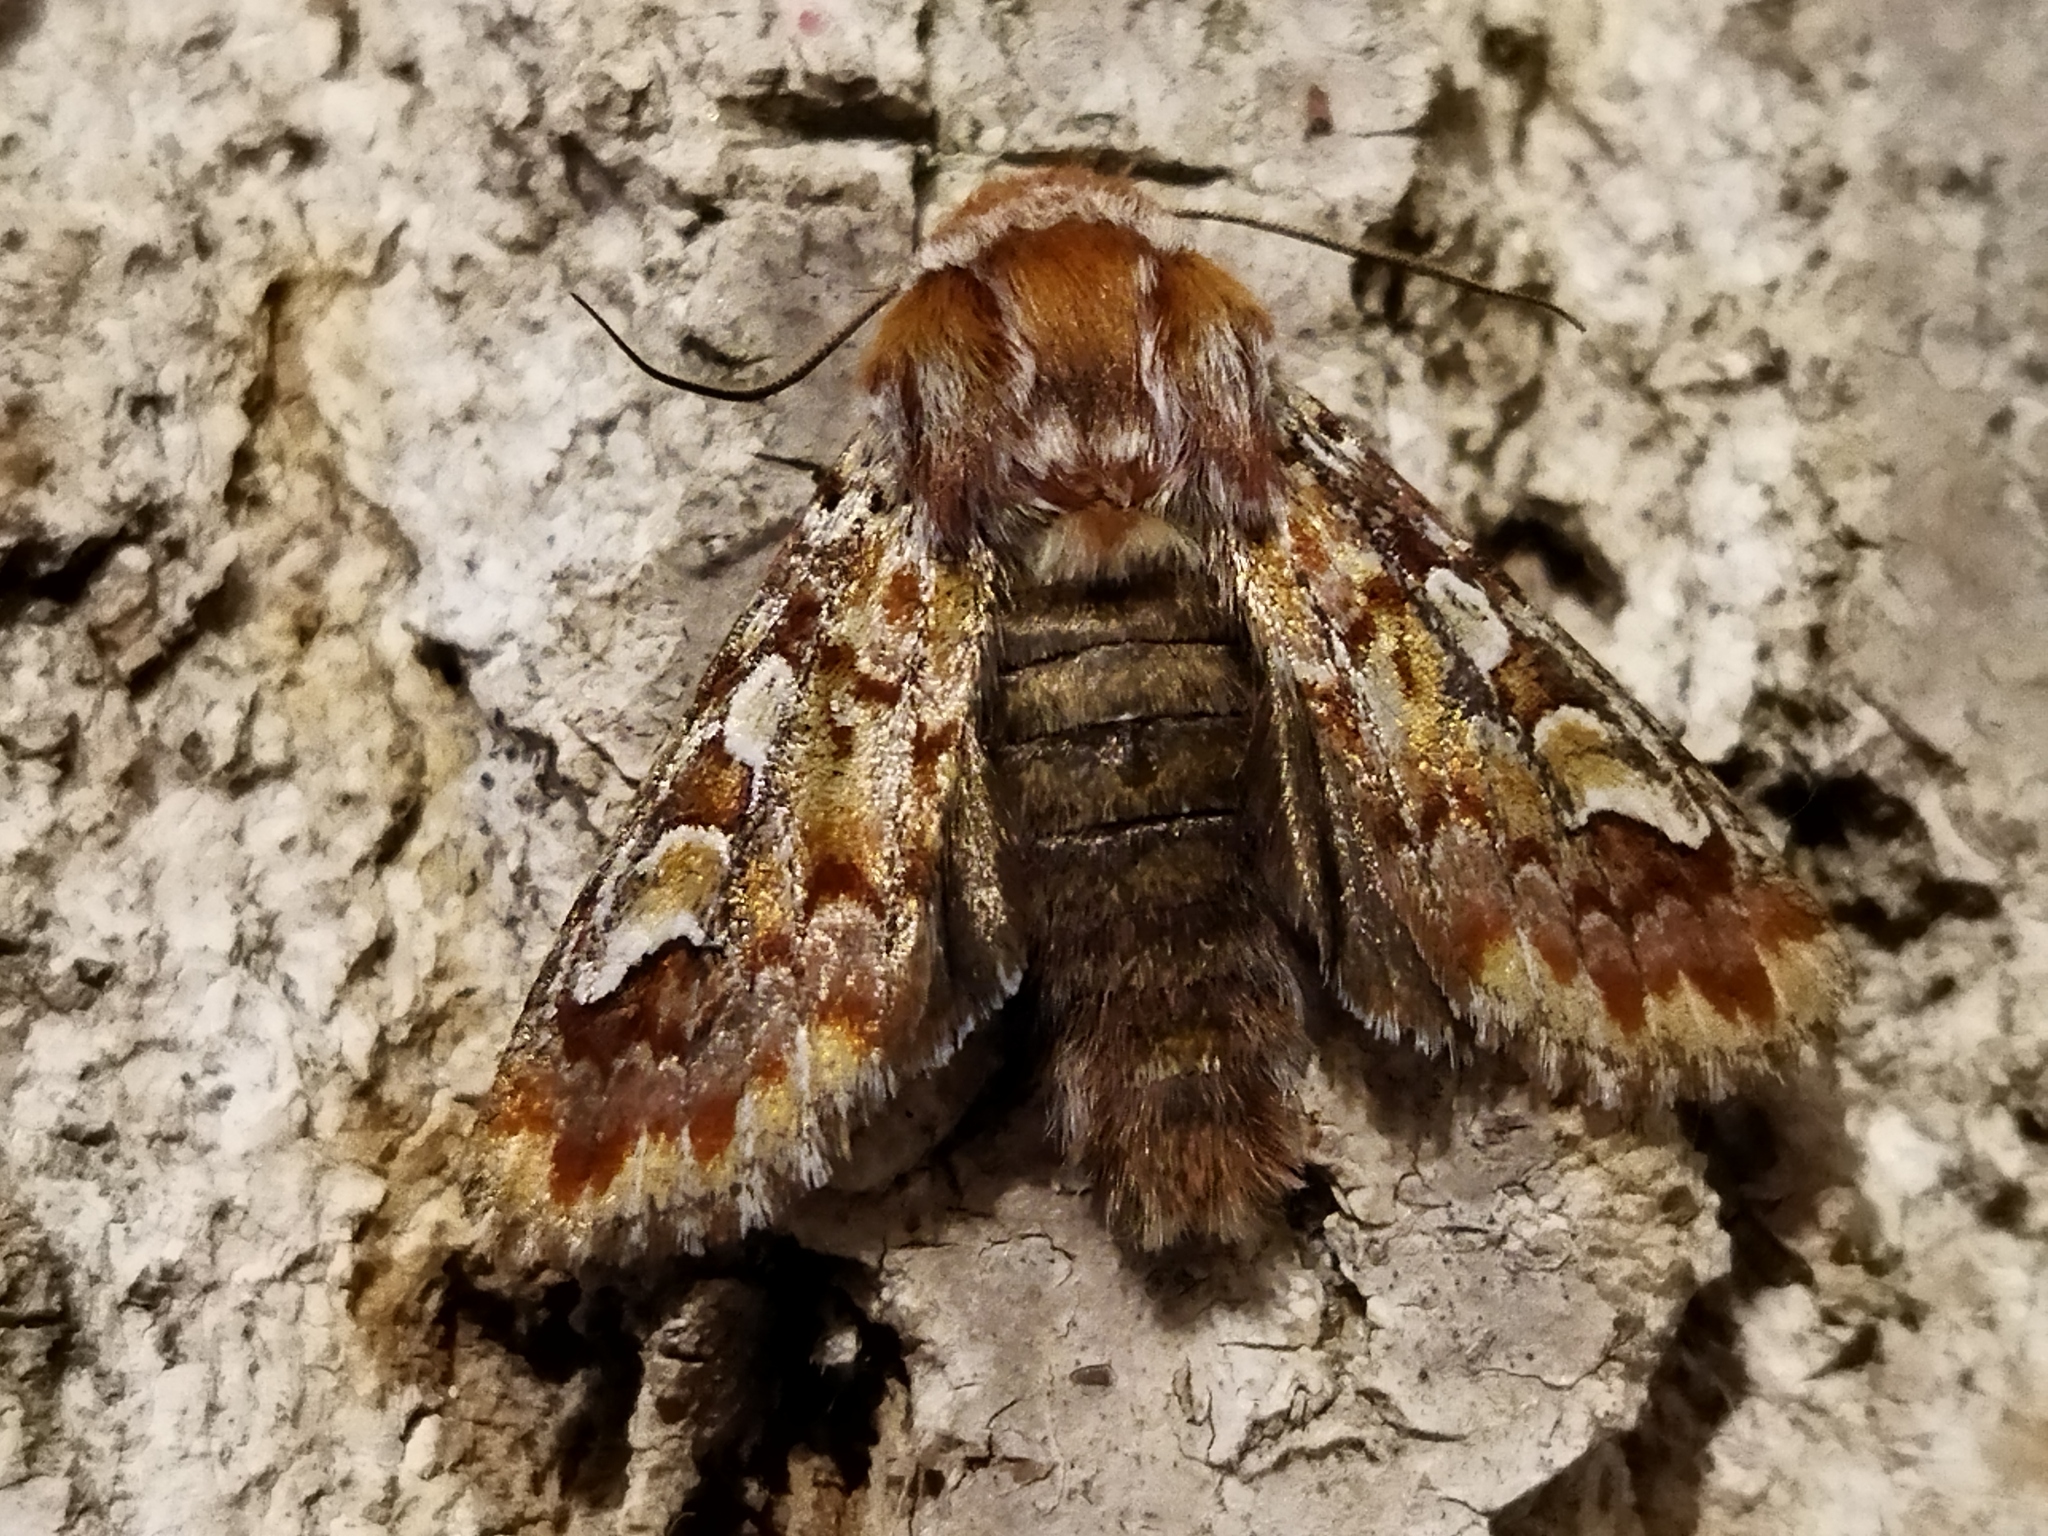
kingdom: Animalia
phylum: Arthropoda
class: Insecta
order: Lepidoptera
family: Noctuidae
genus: Panolis
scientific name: Panolis flammea
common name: Pine beauty
